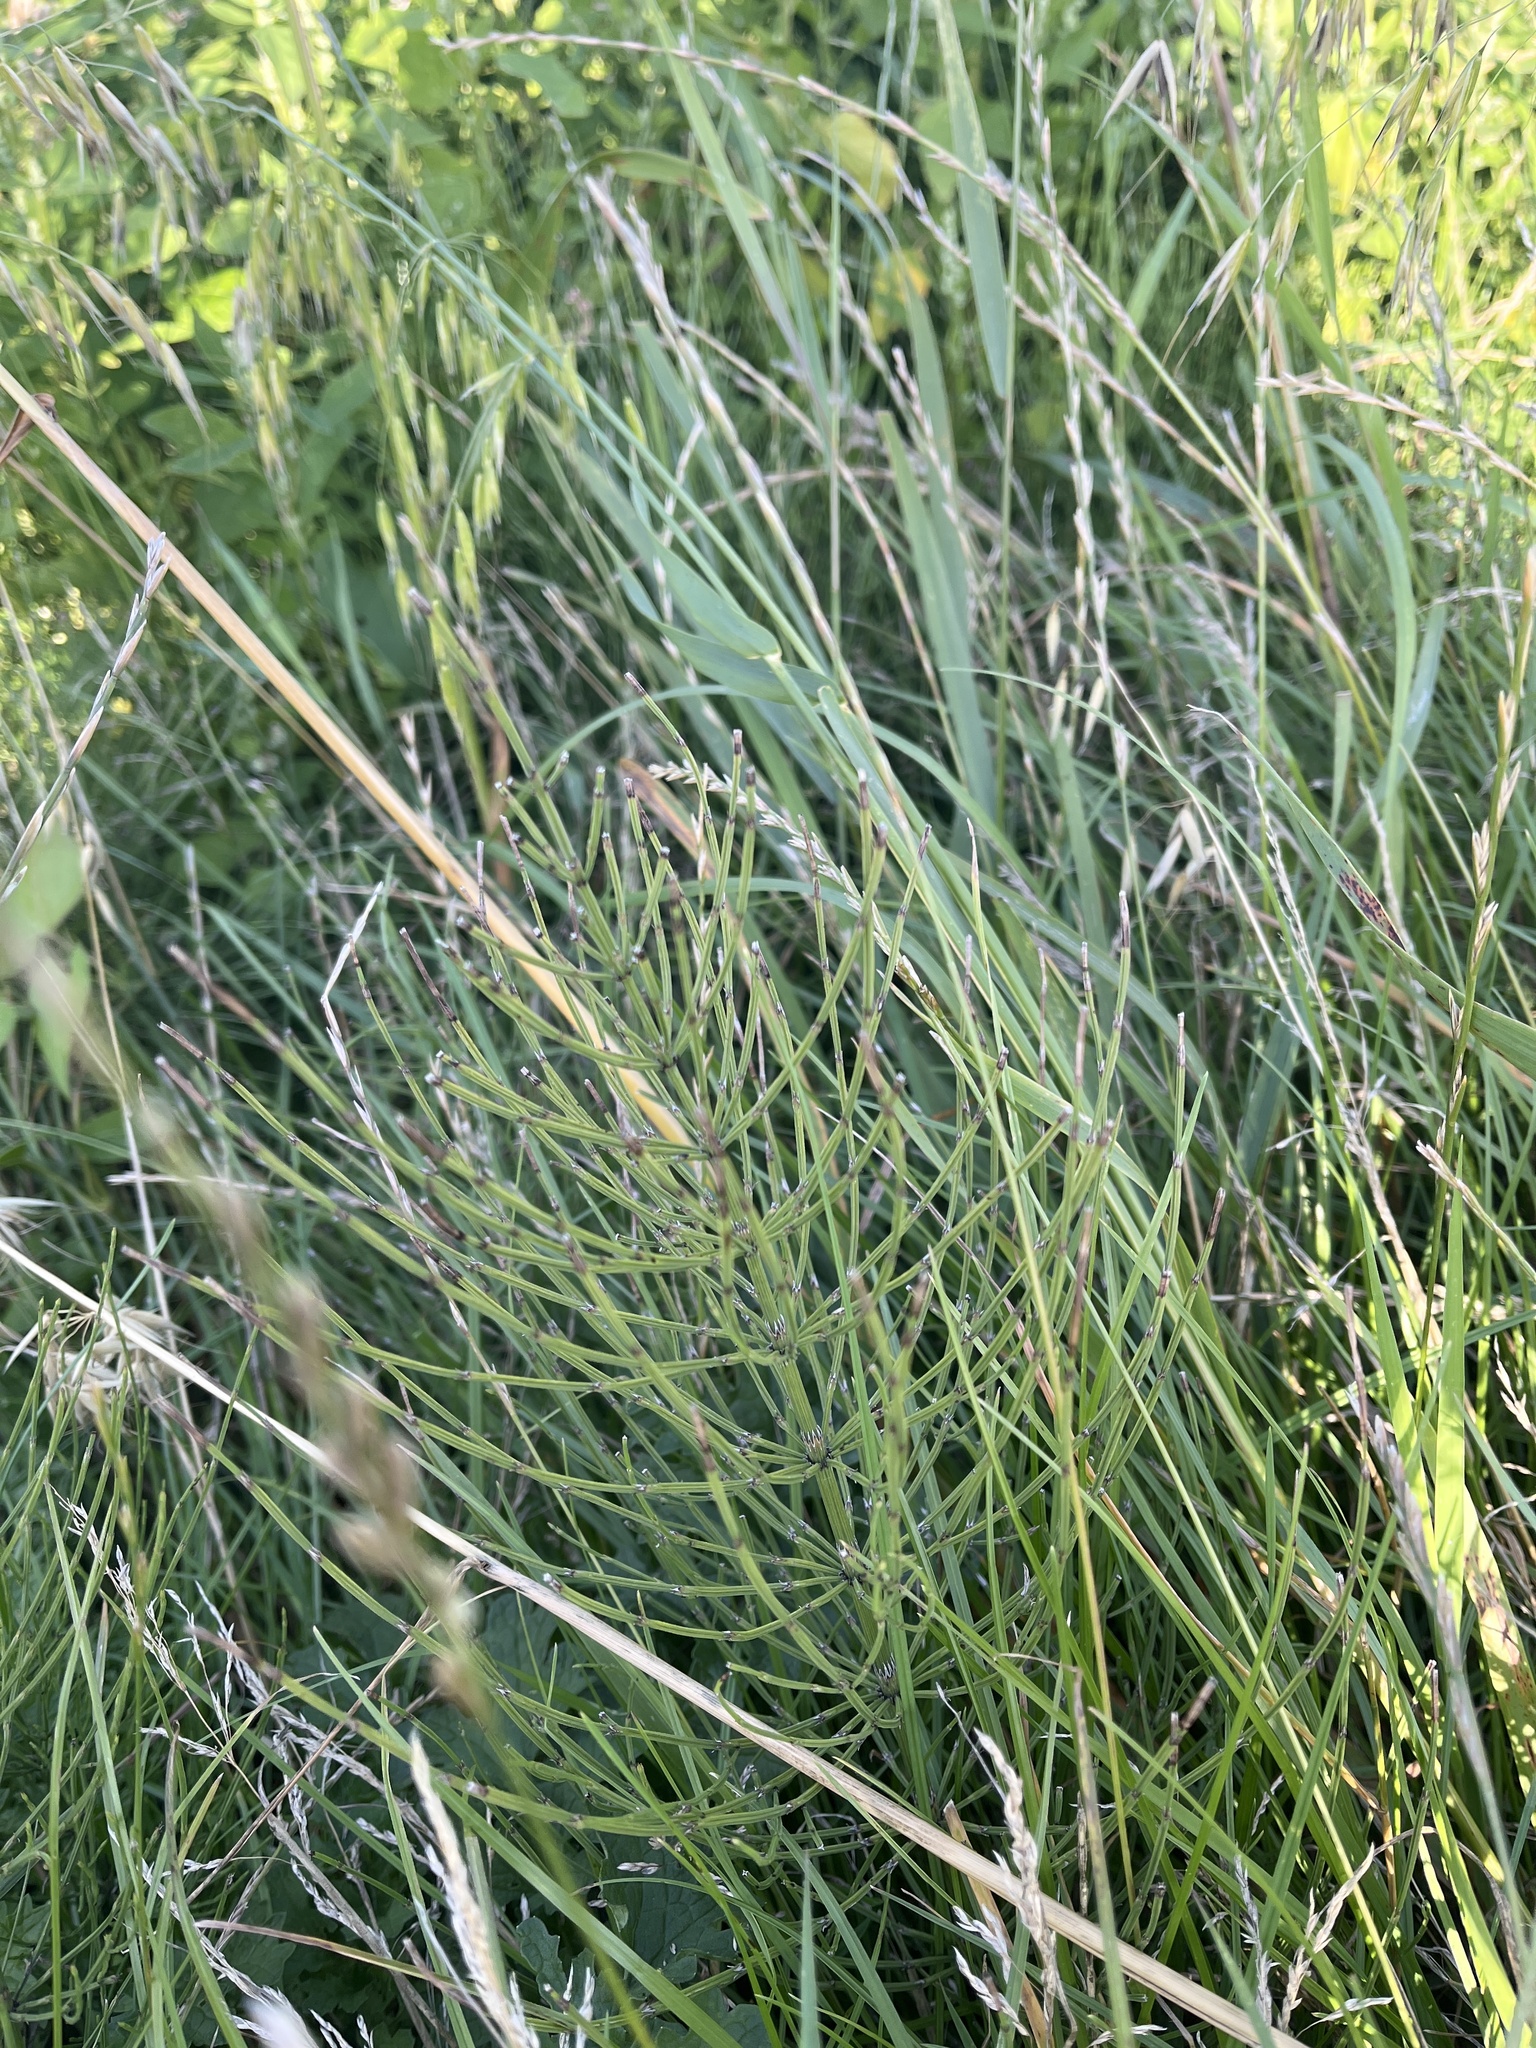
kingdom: Plantae
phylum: Tracheophyta
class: Polypodiopsida
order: Equisetales
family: Equisetaceae
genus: Equisetum
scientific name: Equisetum arvense
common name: Field horsetail
